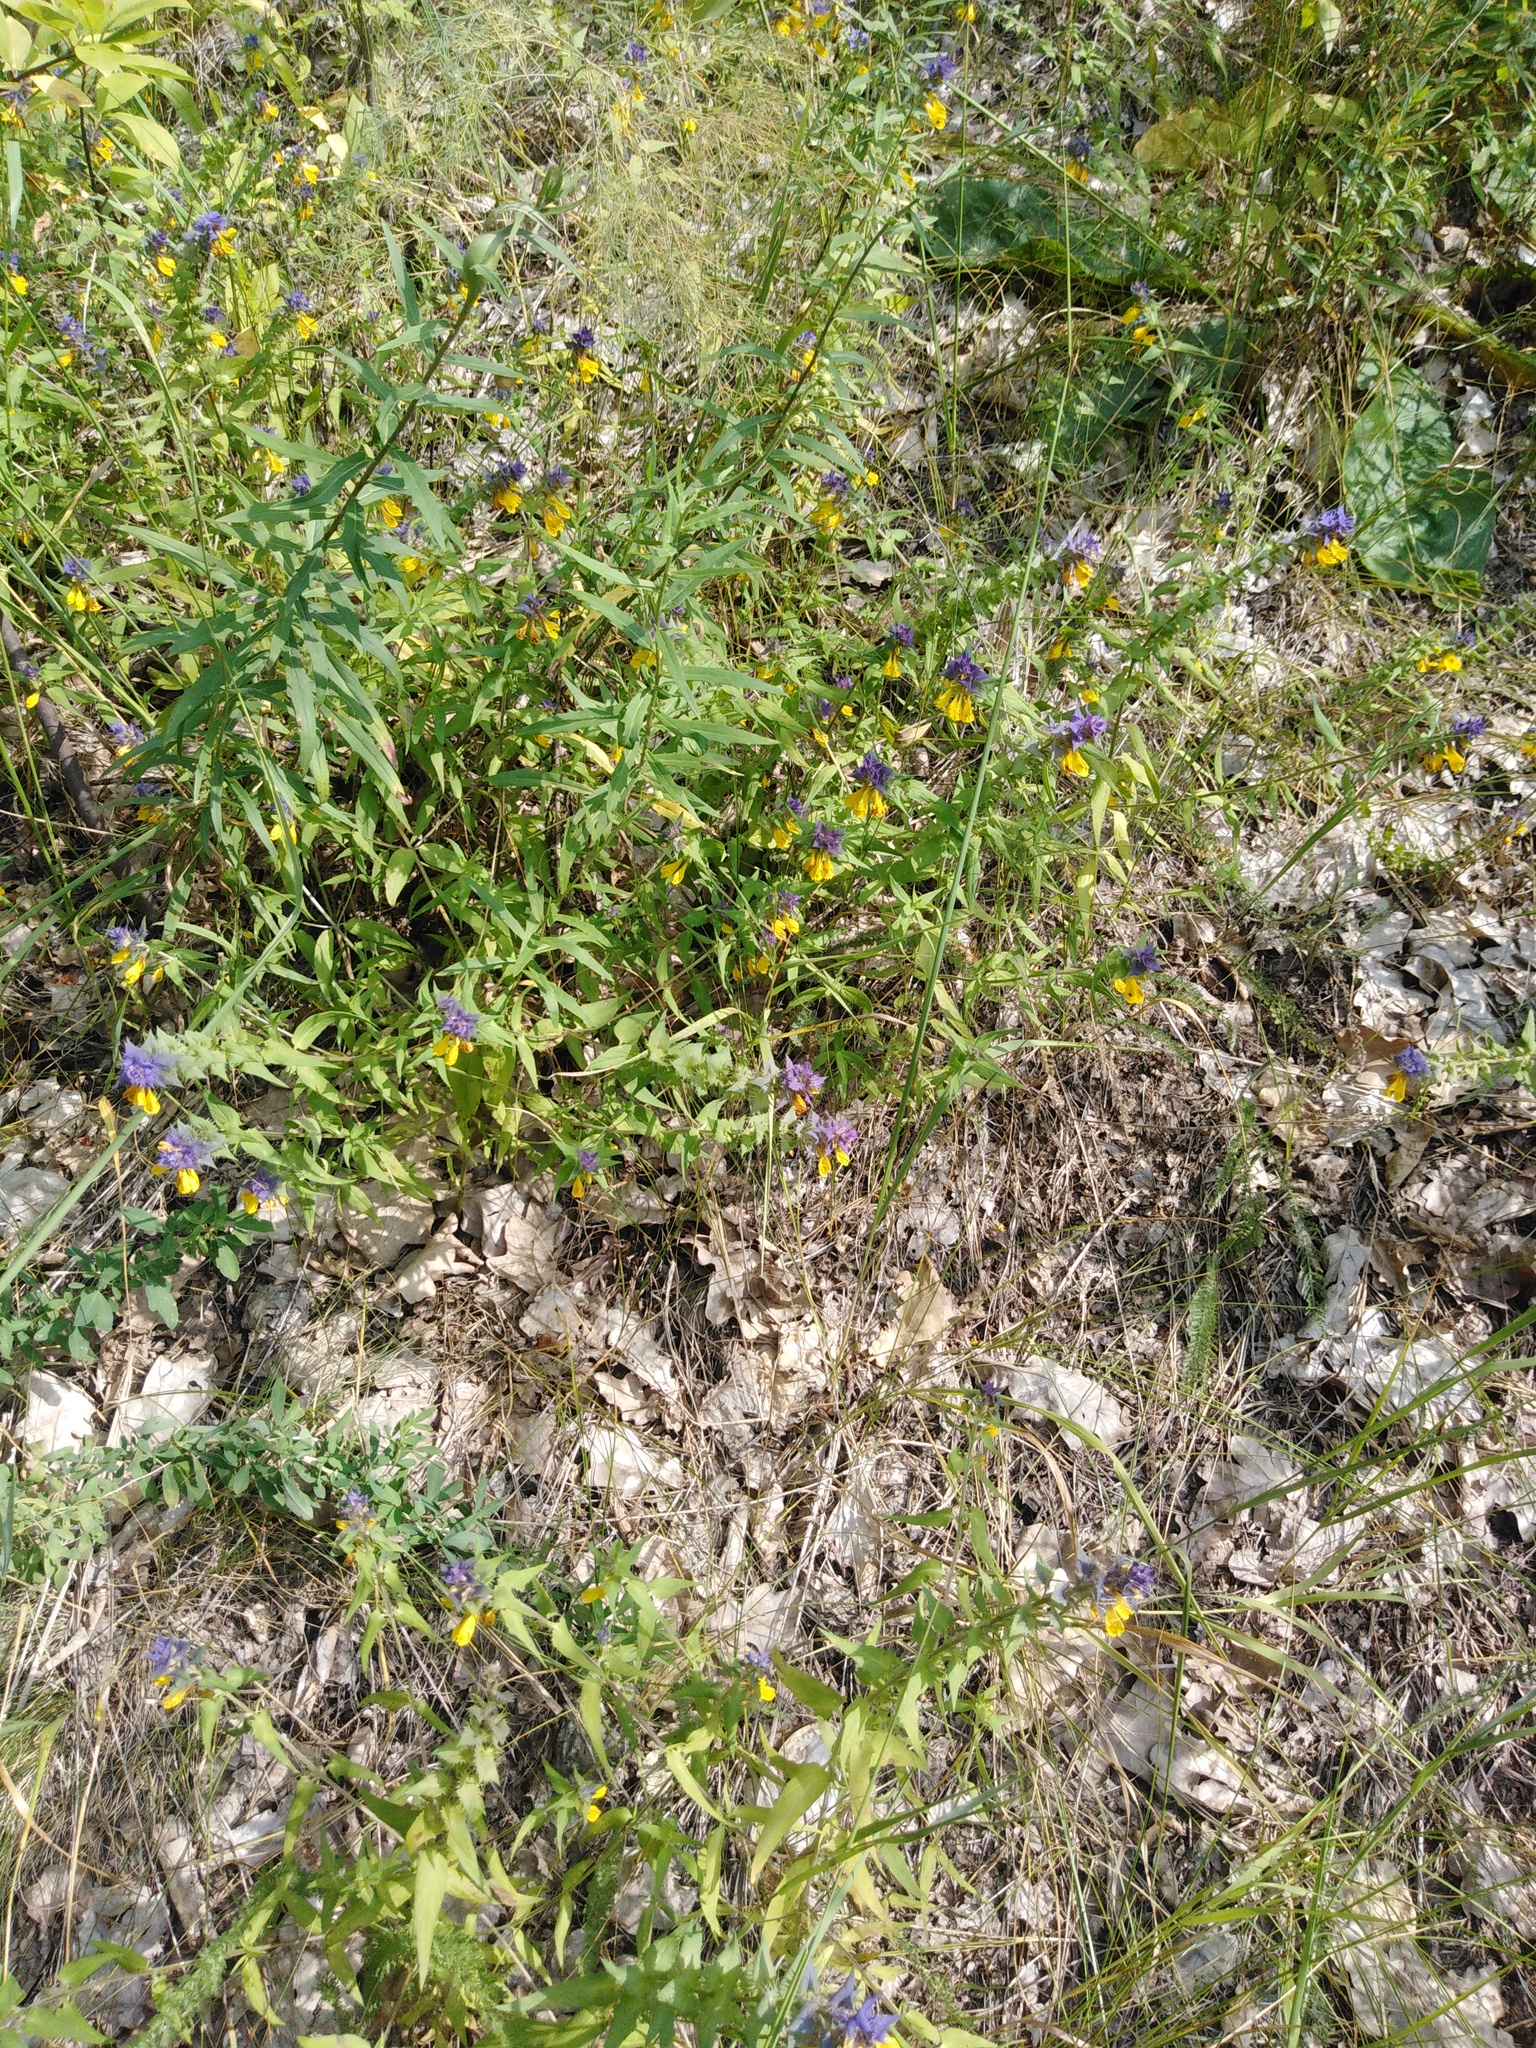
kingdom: Plantae
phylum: Tracheophyta
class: Magnoliopsida
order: Lamiales
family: Orobanchaceae
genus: Melampyrum
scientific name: Melampyrum nemorosum
